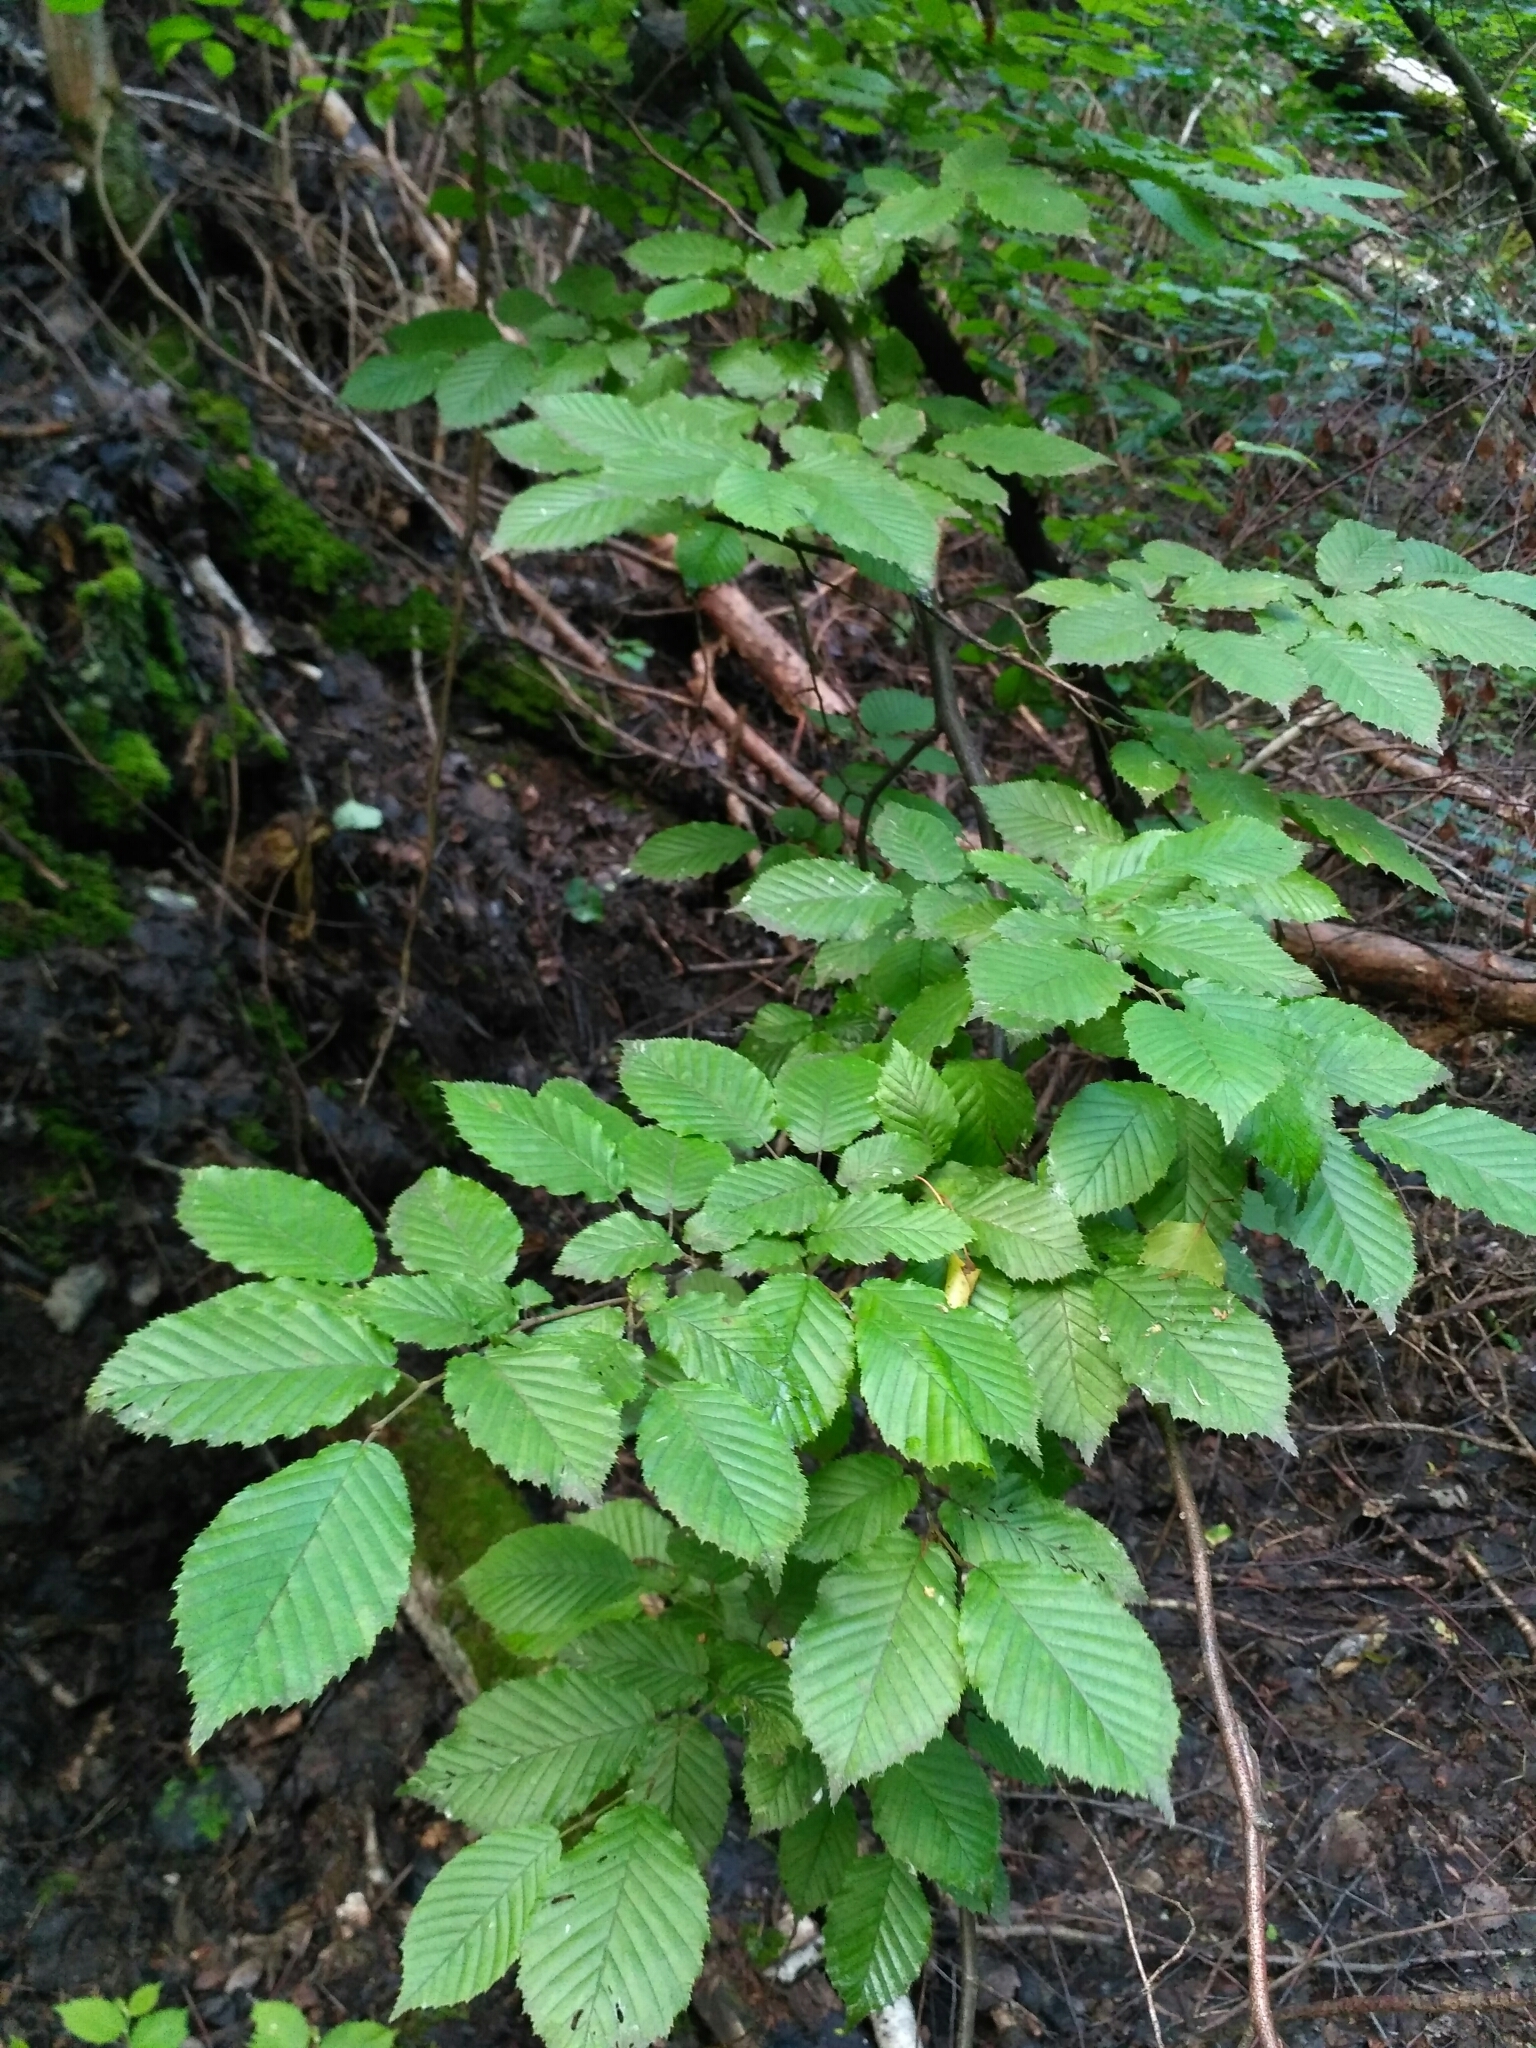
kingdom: Plantae
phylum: Tracheophyta
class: Magnoliopsida
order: Fagales
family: Betulaceae
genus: Carpinus
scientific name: Carpinus betulus
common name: Hornbeam
